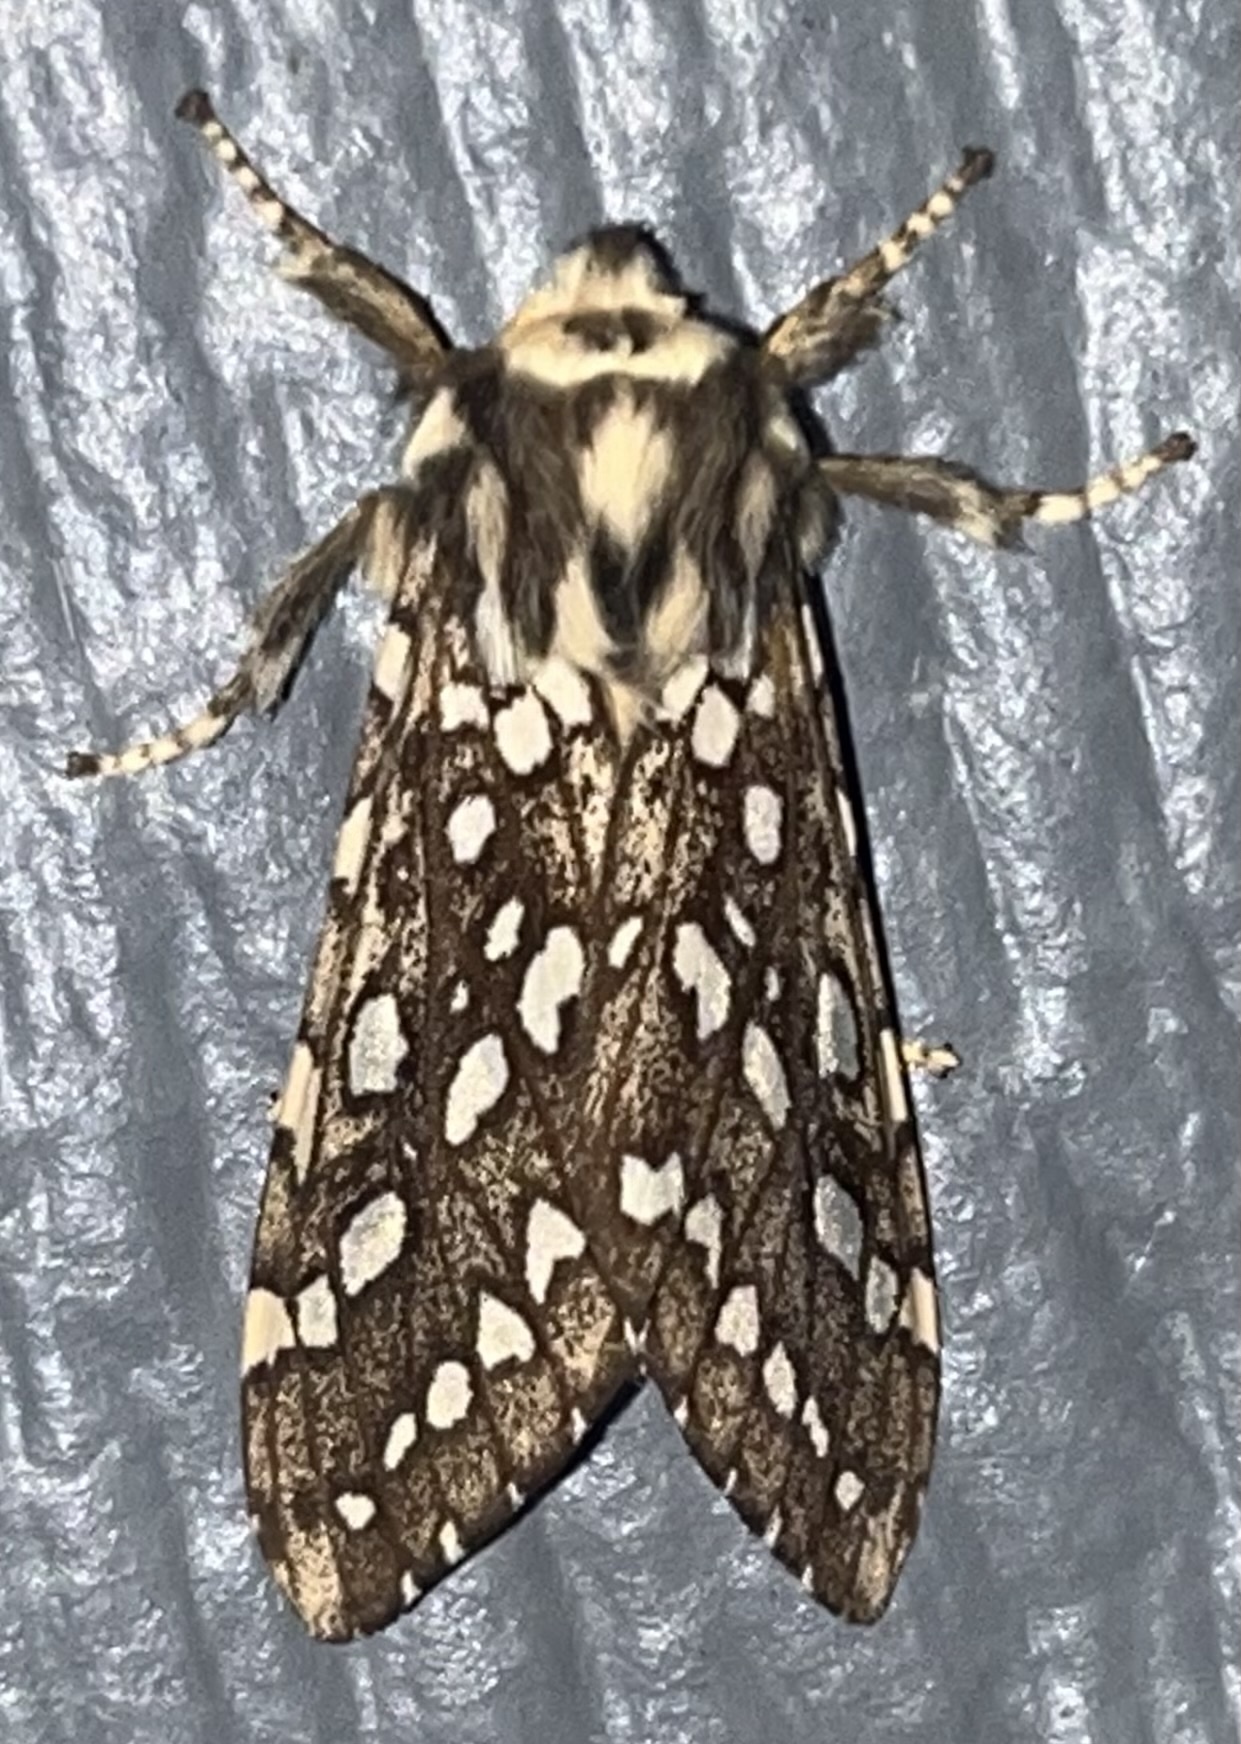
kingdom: Animalia
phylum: Arthropoda
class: Insecta
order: Lepidoptera
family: Erebidae
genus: Lophocampa
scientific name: Lophocampa argentata
